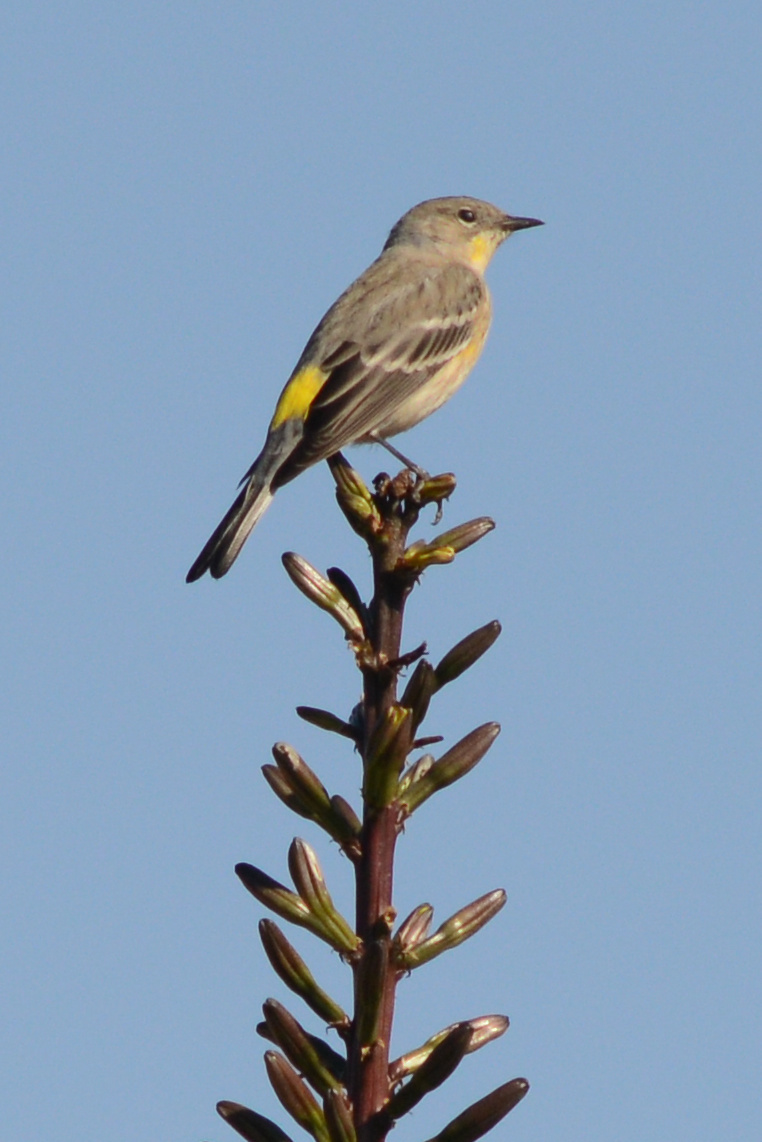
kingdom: Animalia
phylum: Chordata
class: Aves
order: Passeriformes
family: Parulidae
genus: Setophaga
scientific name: Setophaga auduboni
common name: Audubon's warbler
